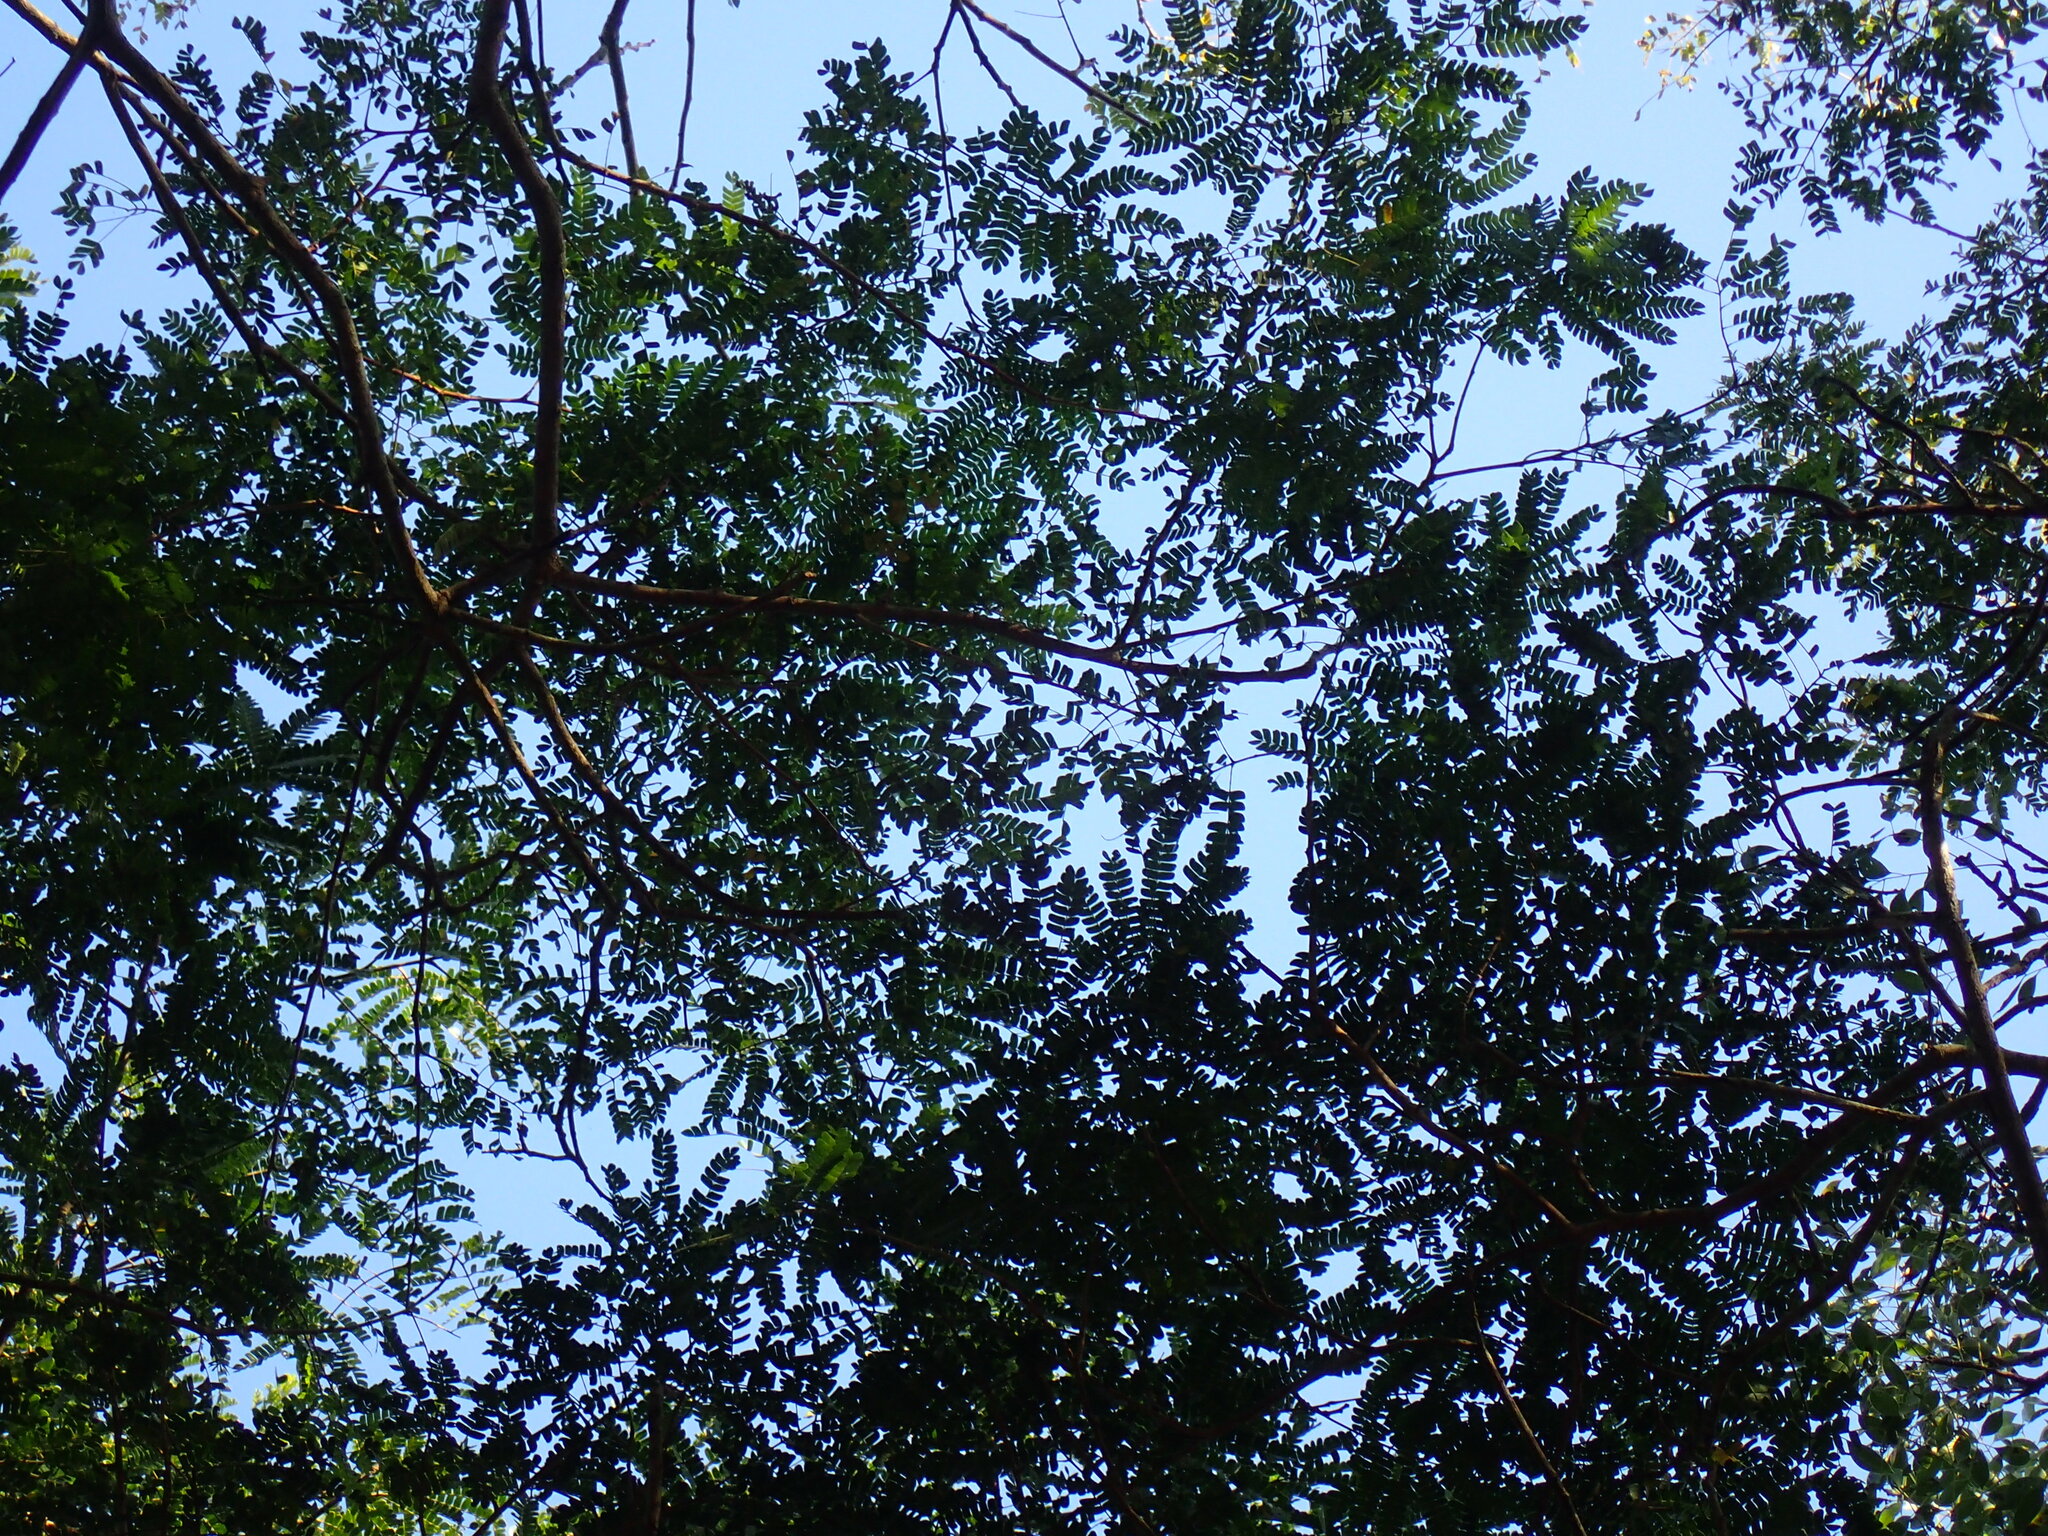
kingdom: Plantae
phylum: Tracheophyta
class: Magnoliopsida
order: Fabales
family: Fabaceae
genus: Albizia
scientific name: Albizia adianthifolia
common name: West african albizia
